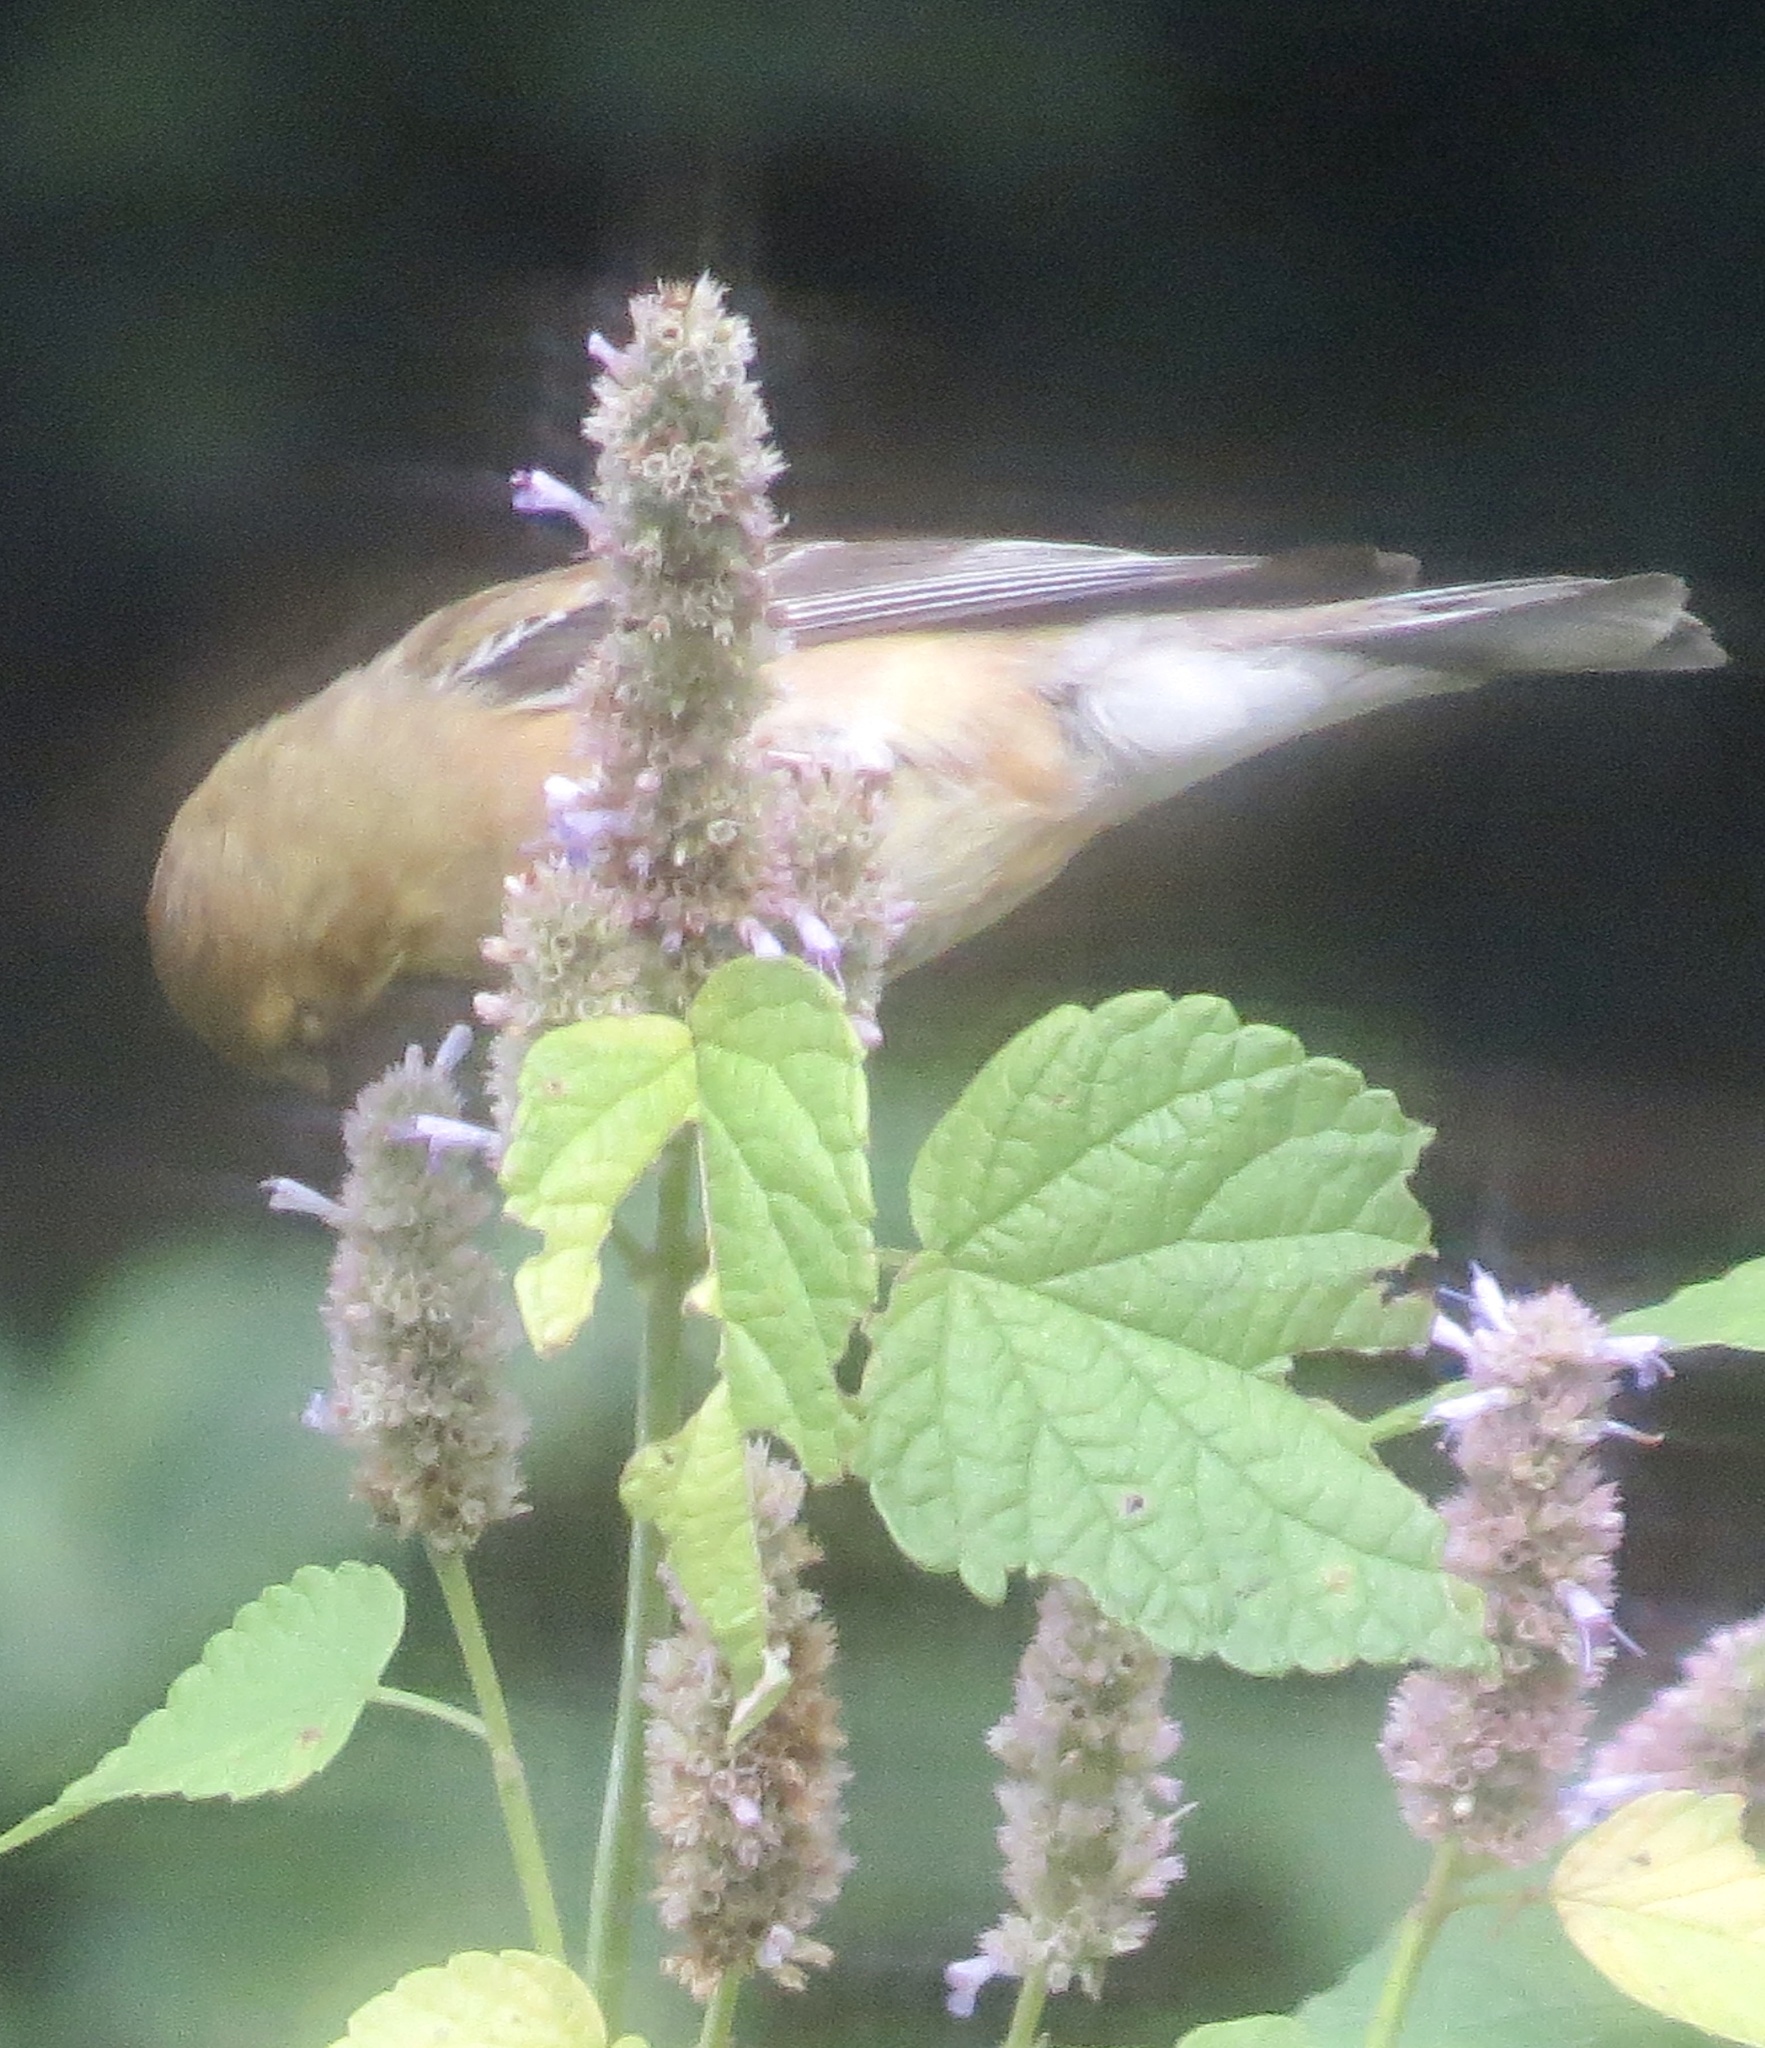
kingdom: Animalia
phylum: Chordata
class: Aves
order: Passeriformes
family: Fringillidae
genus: Spinus
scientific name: Spinus tristis
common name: American goldfinch
